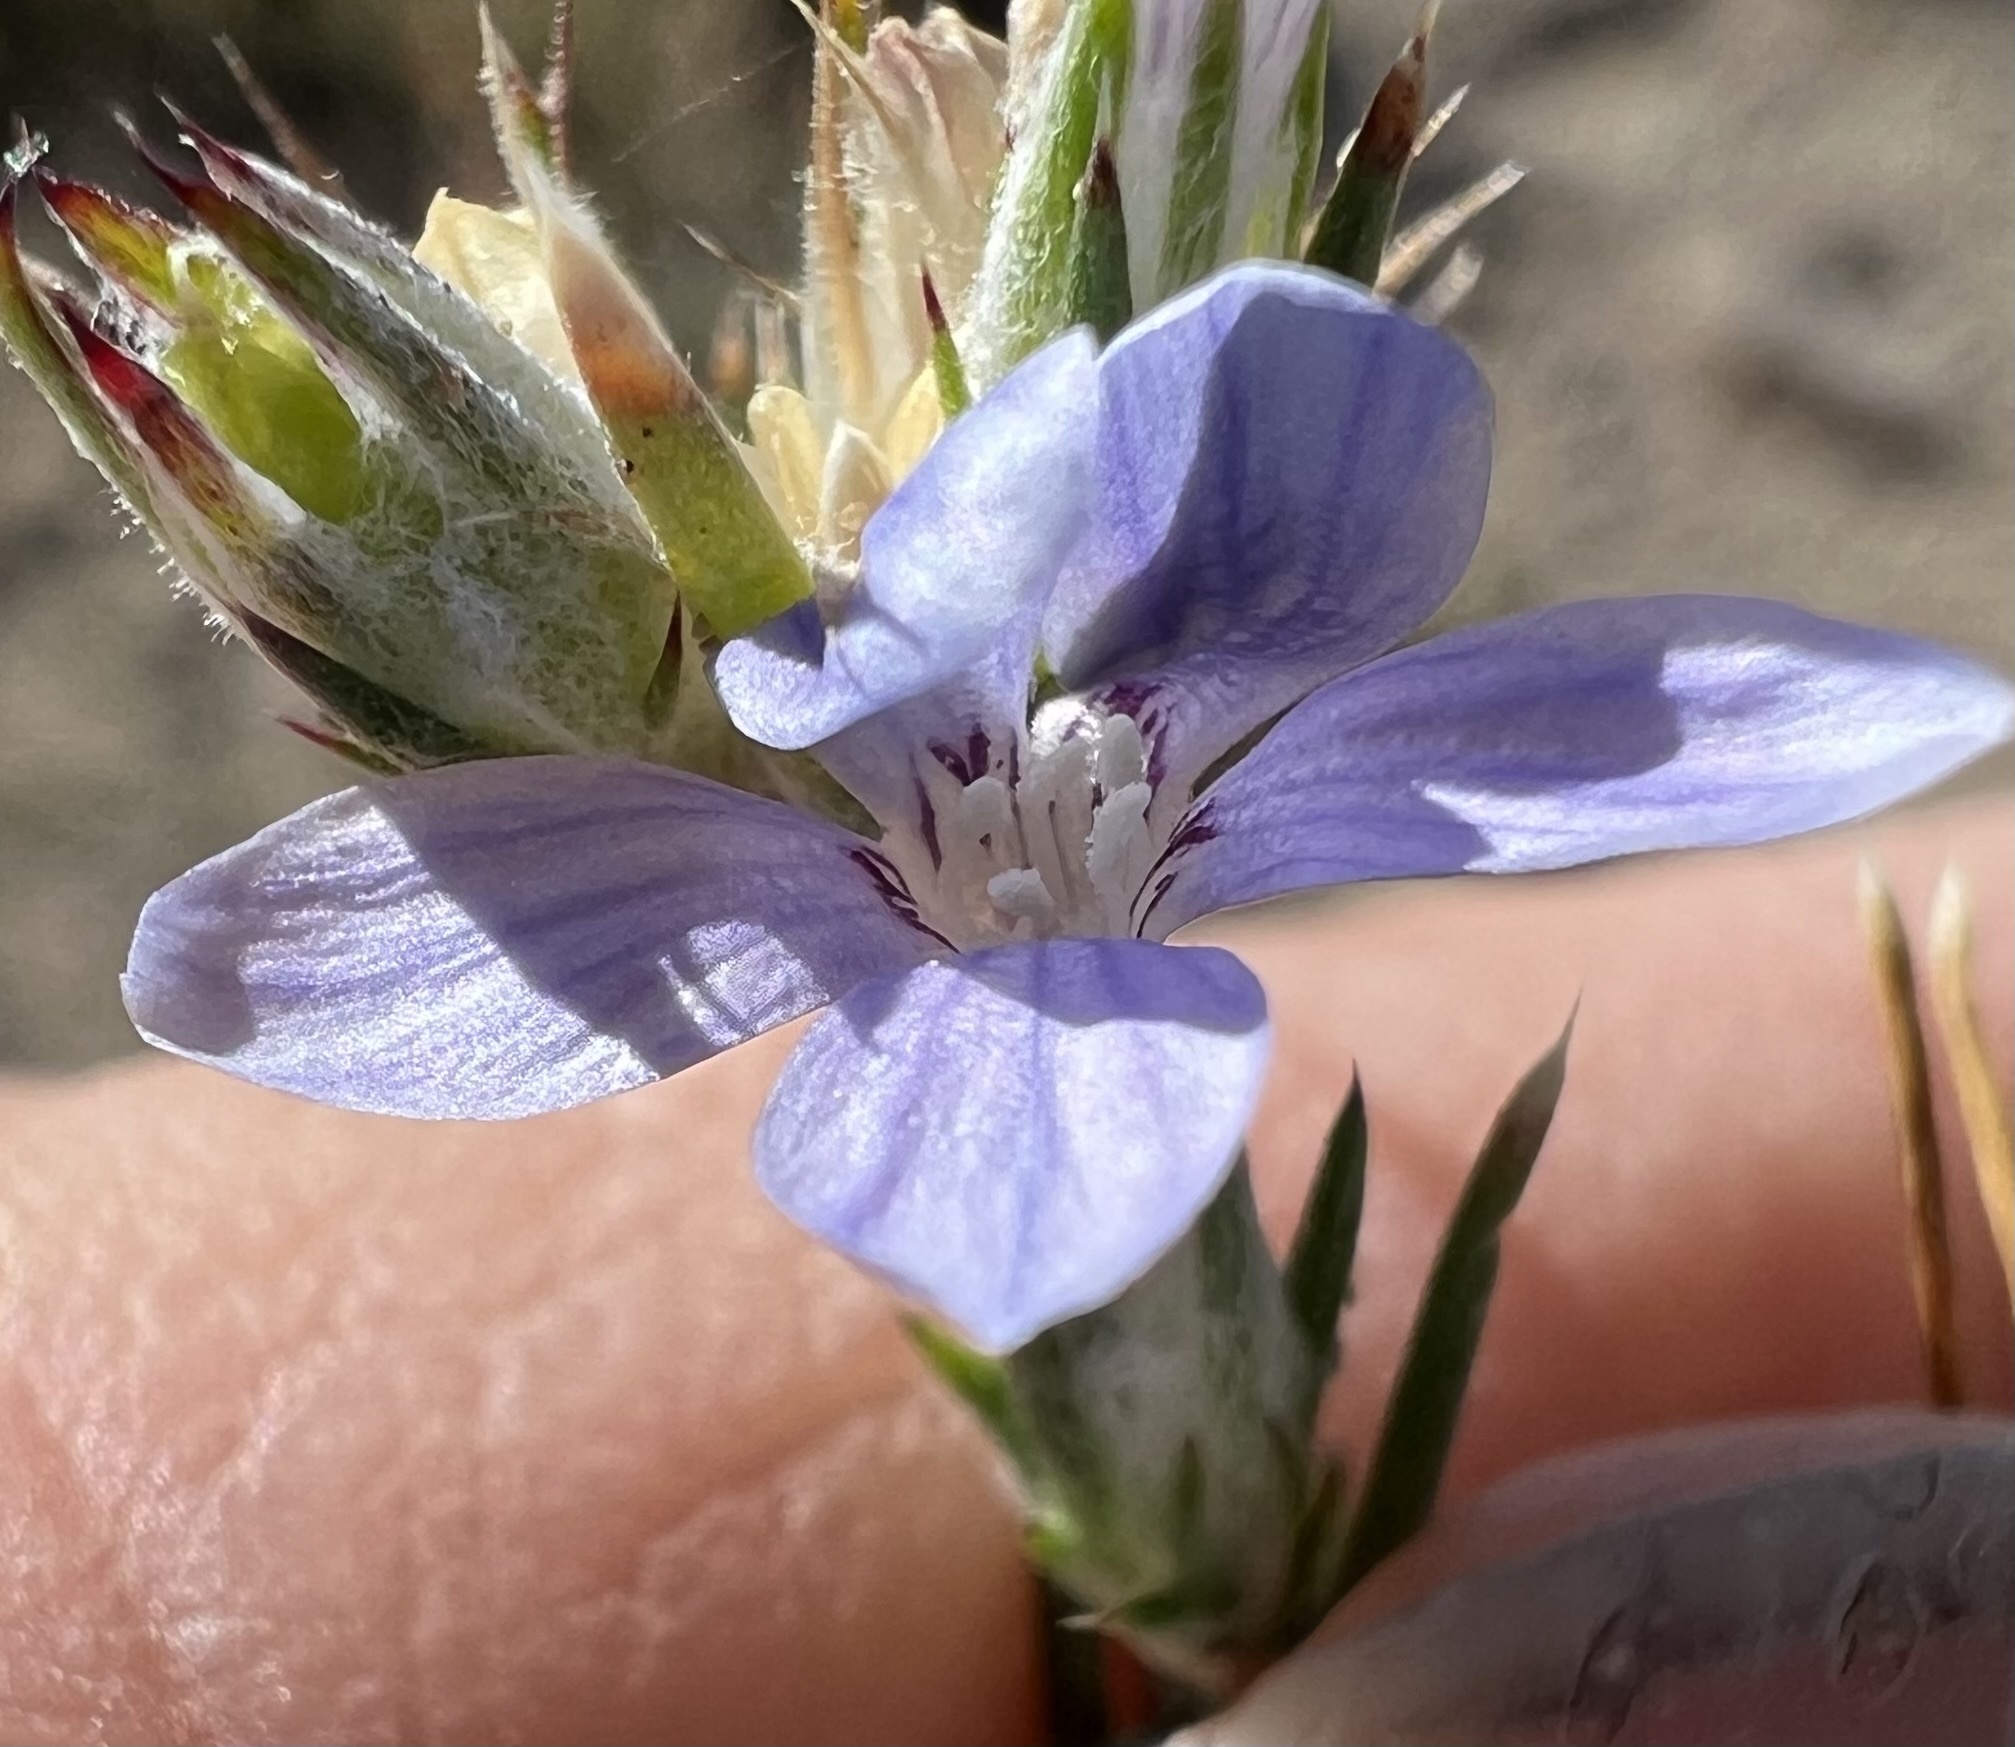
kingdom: Plantae
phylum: Tracheophyta
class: Magnoliopsida
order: Ericales
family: Polemoniaceae
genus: Eriastrum
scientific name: Eriastrum wilcoxii
